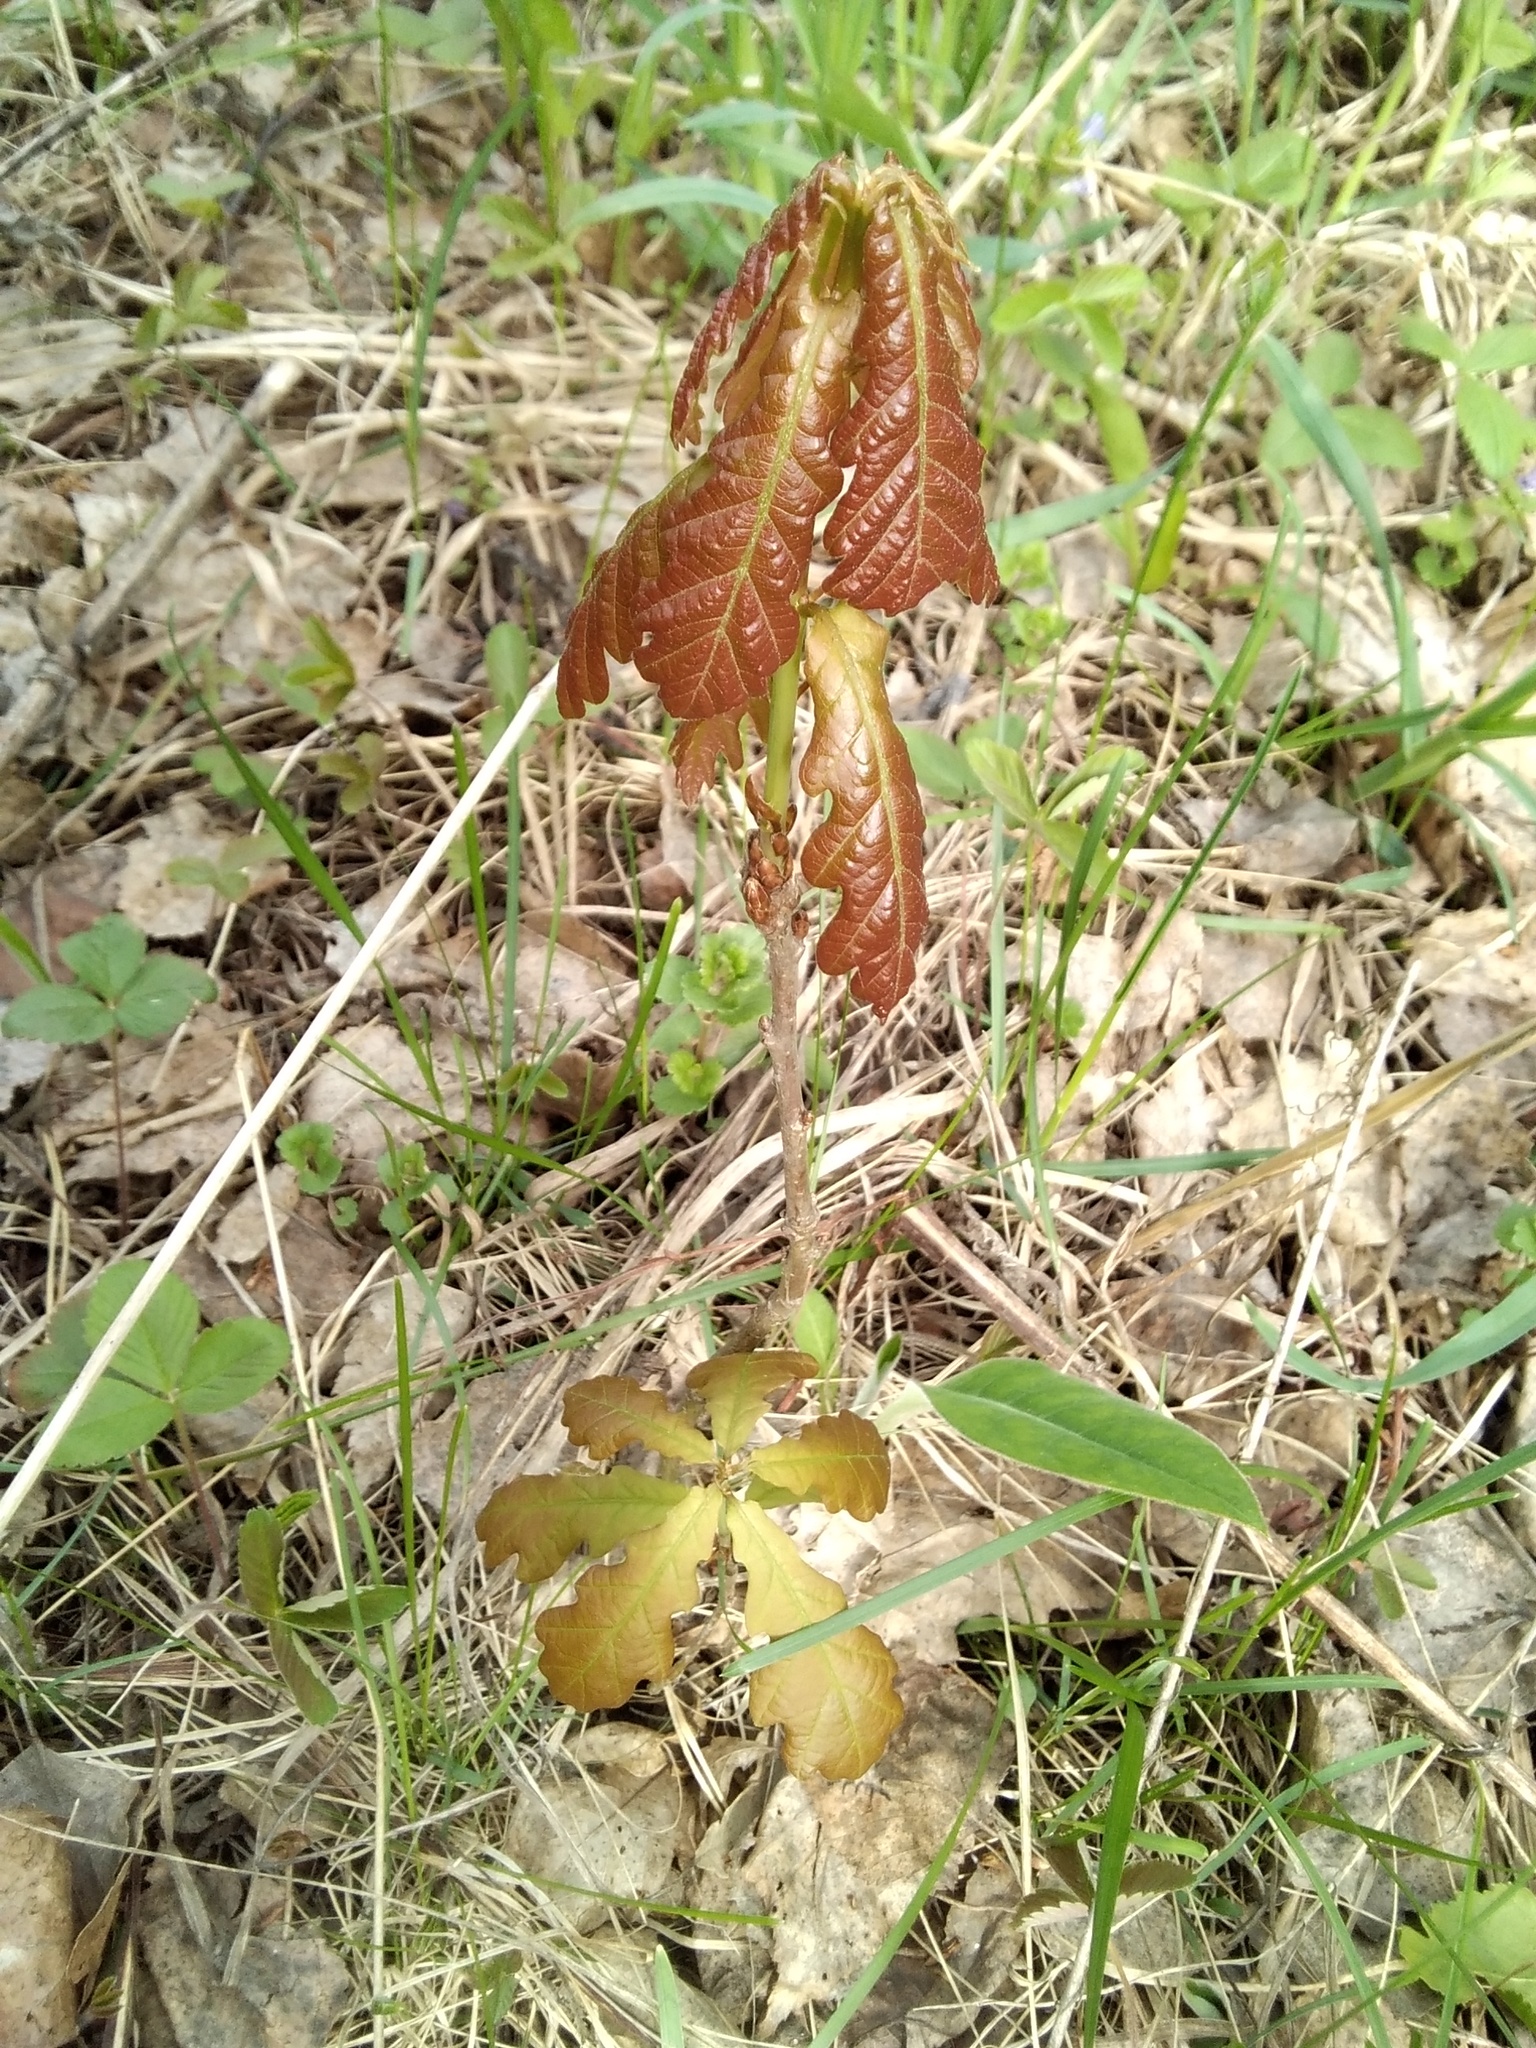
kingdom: Plantae
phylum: Tracheophyta
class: Magnoliopsida
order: Fagales
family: Fagaceae
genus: Quercus
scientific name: Quercus robur
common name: Pedunculate oak
